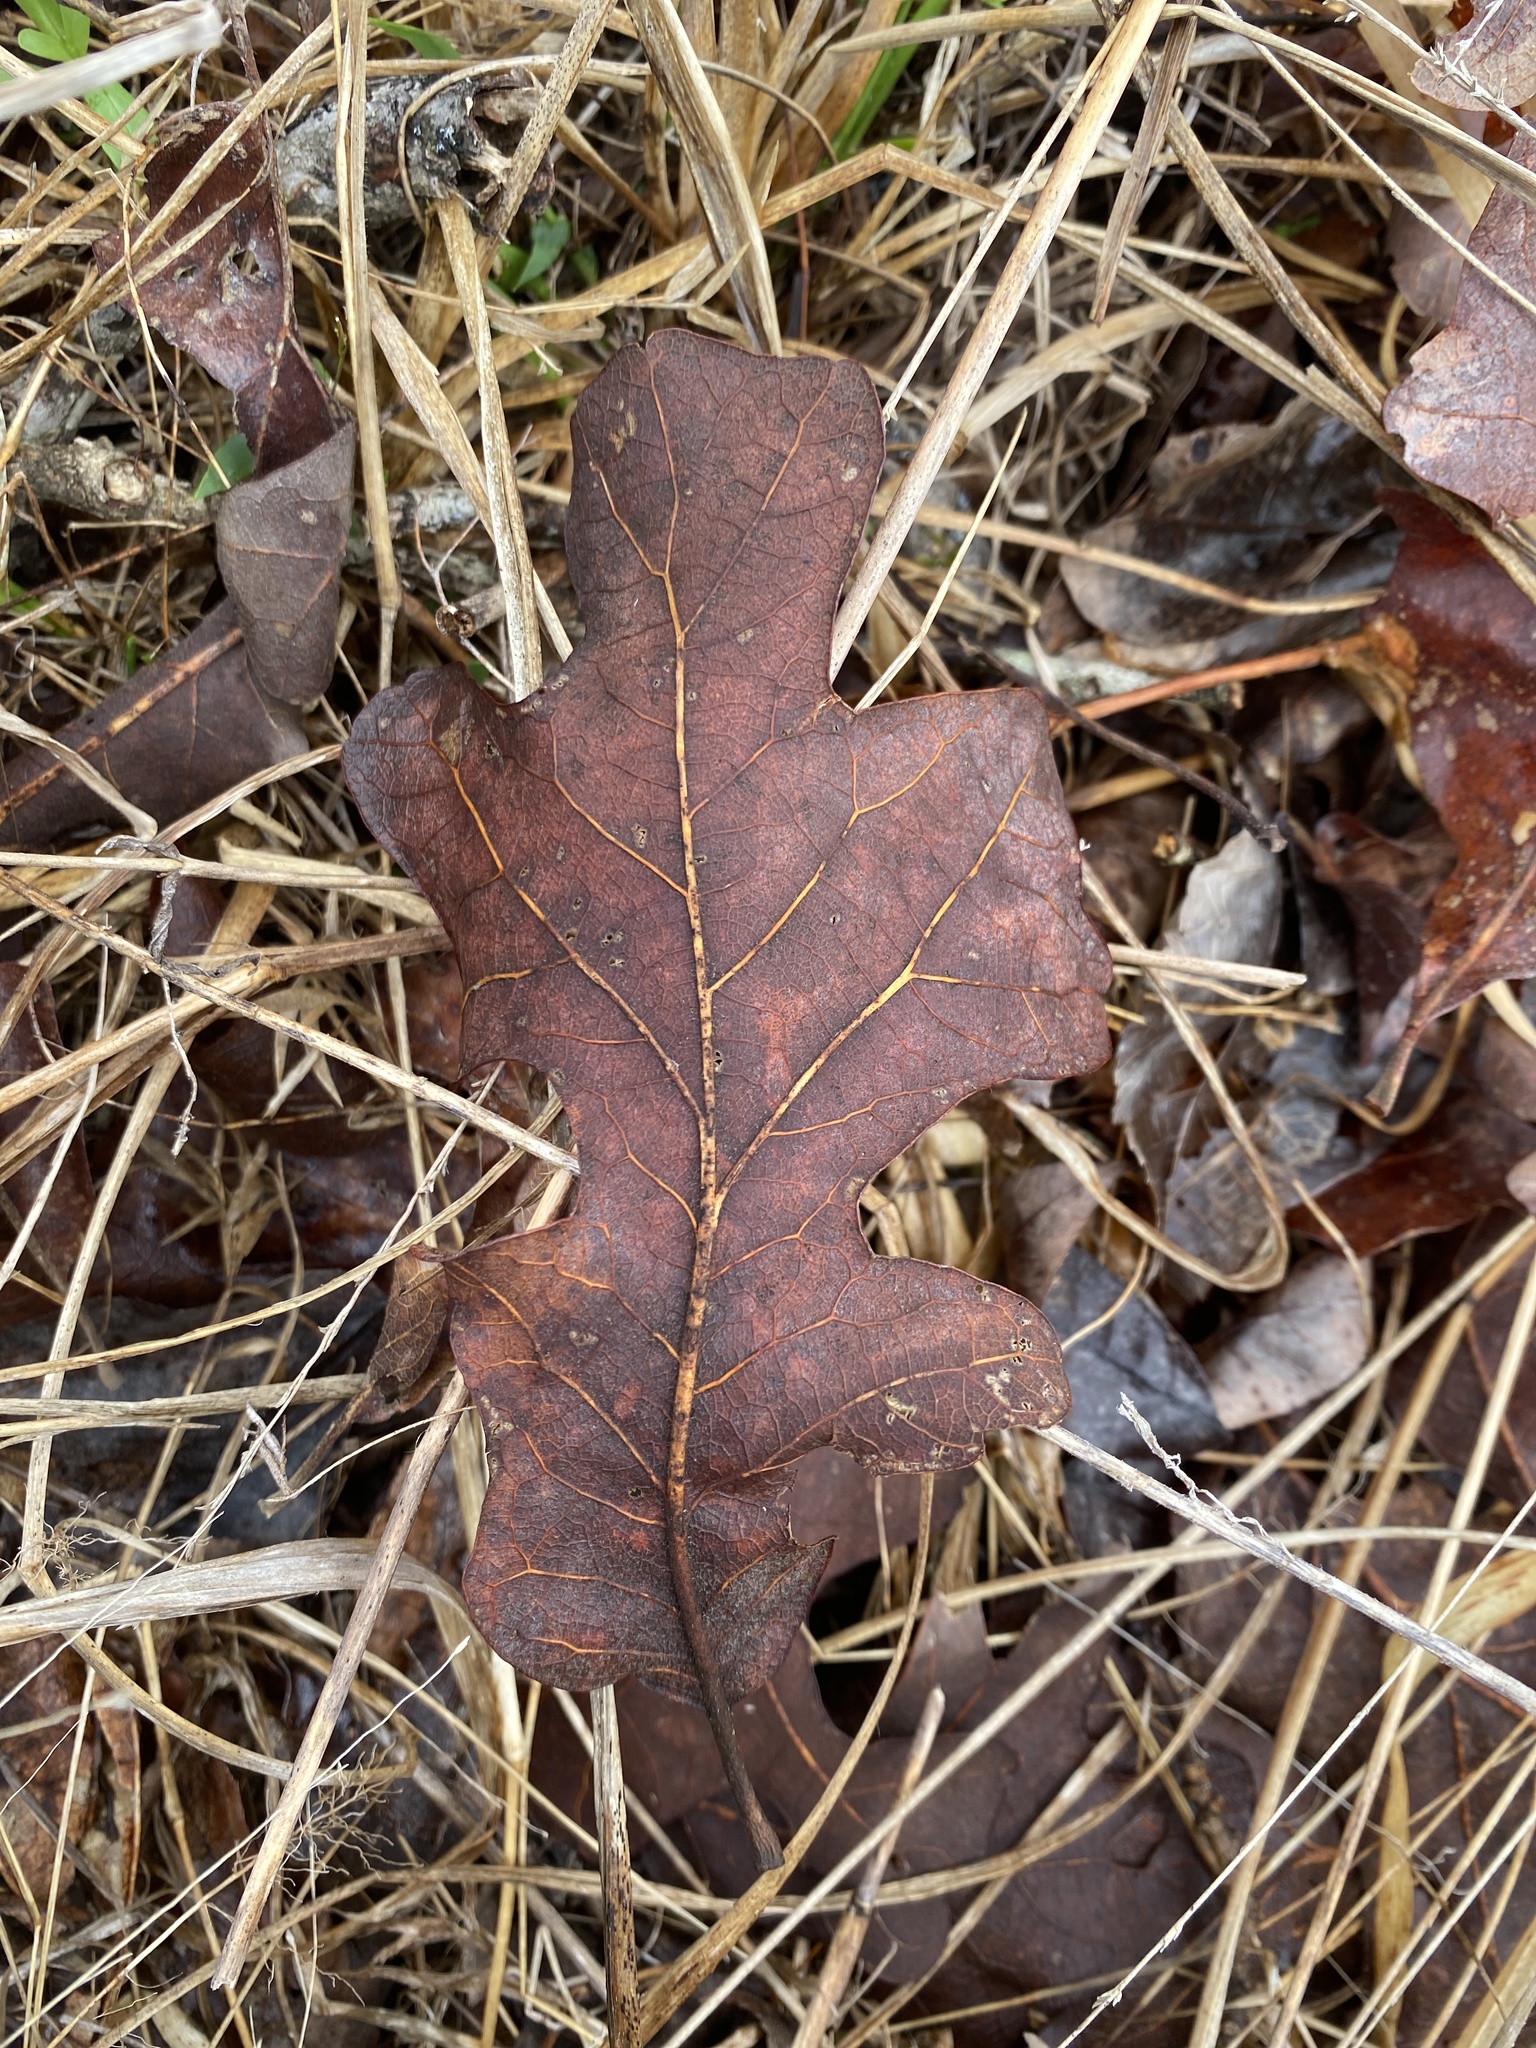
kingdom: Plantae
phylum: Tracheophyta
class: Magnoliopsida
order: Fagales
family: Fagaceae
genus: Quercus
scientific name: Quercus stellata
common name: Post oak
